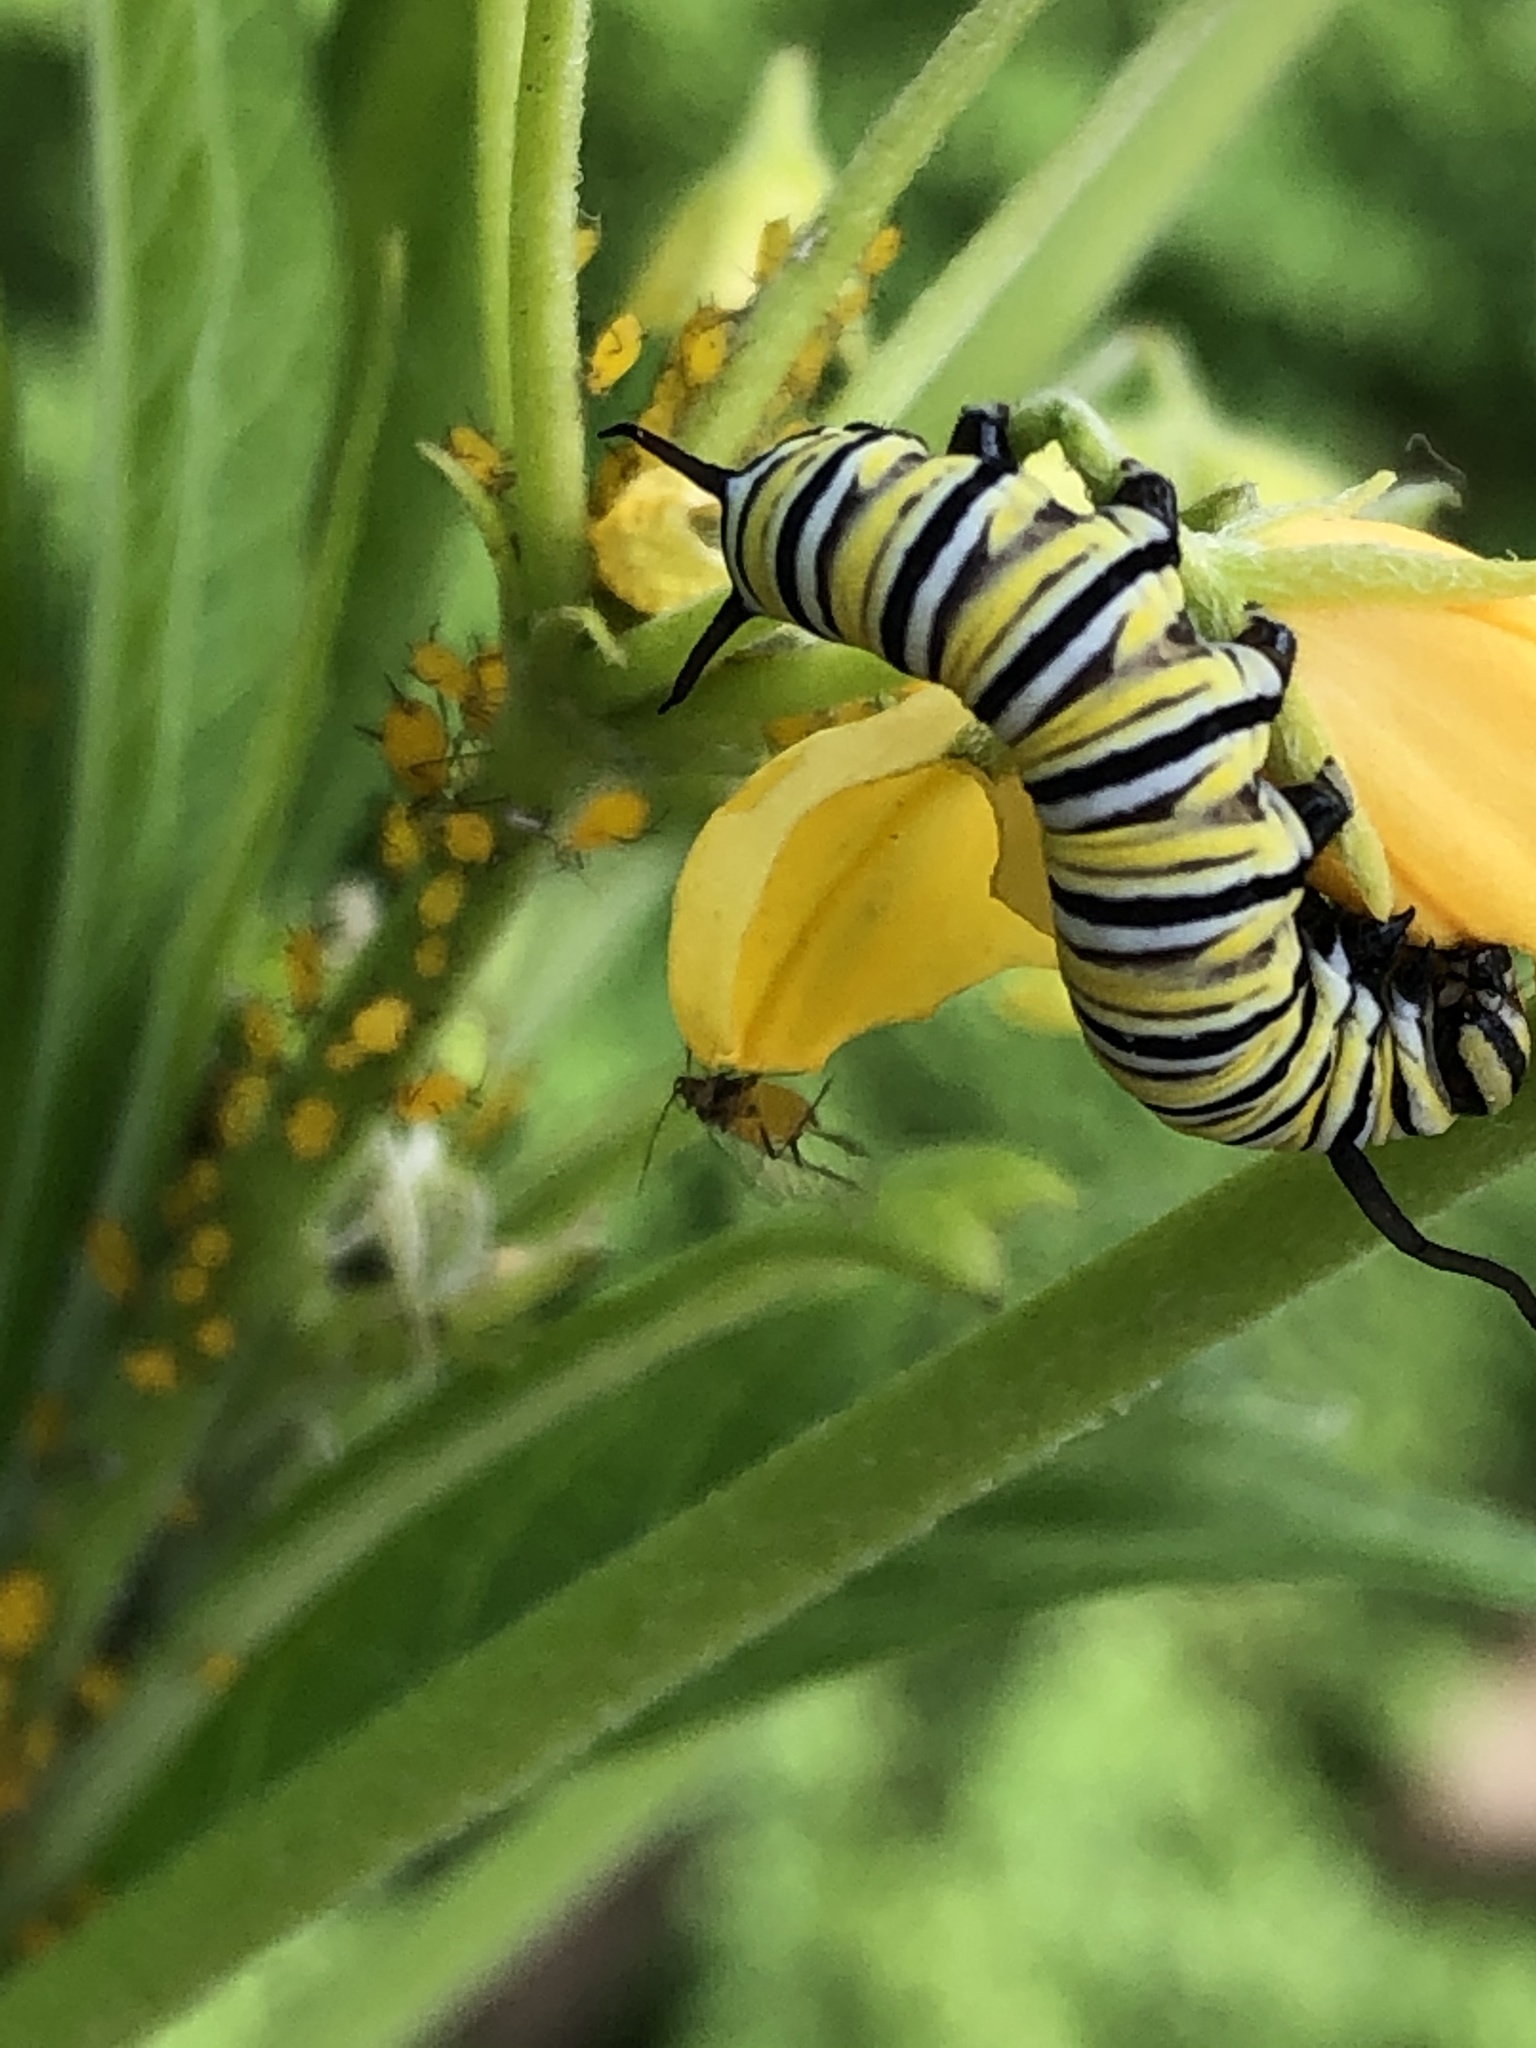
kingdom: Animalia
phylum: Arthropoda
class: Insecta
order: Lepidoptera
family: Nymphalidae
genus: Danaus
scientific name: Danaus plexippus
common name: Monarch
